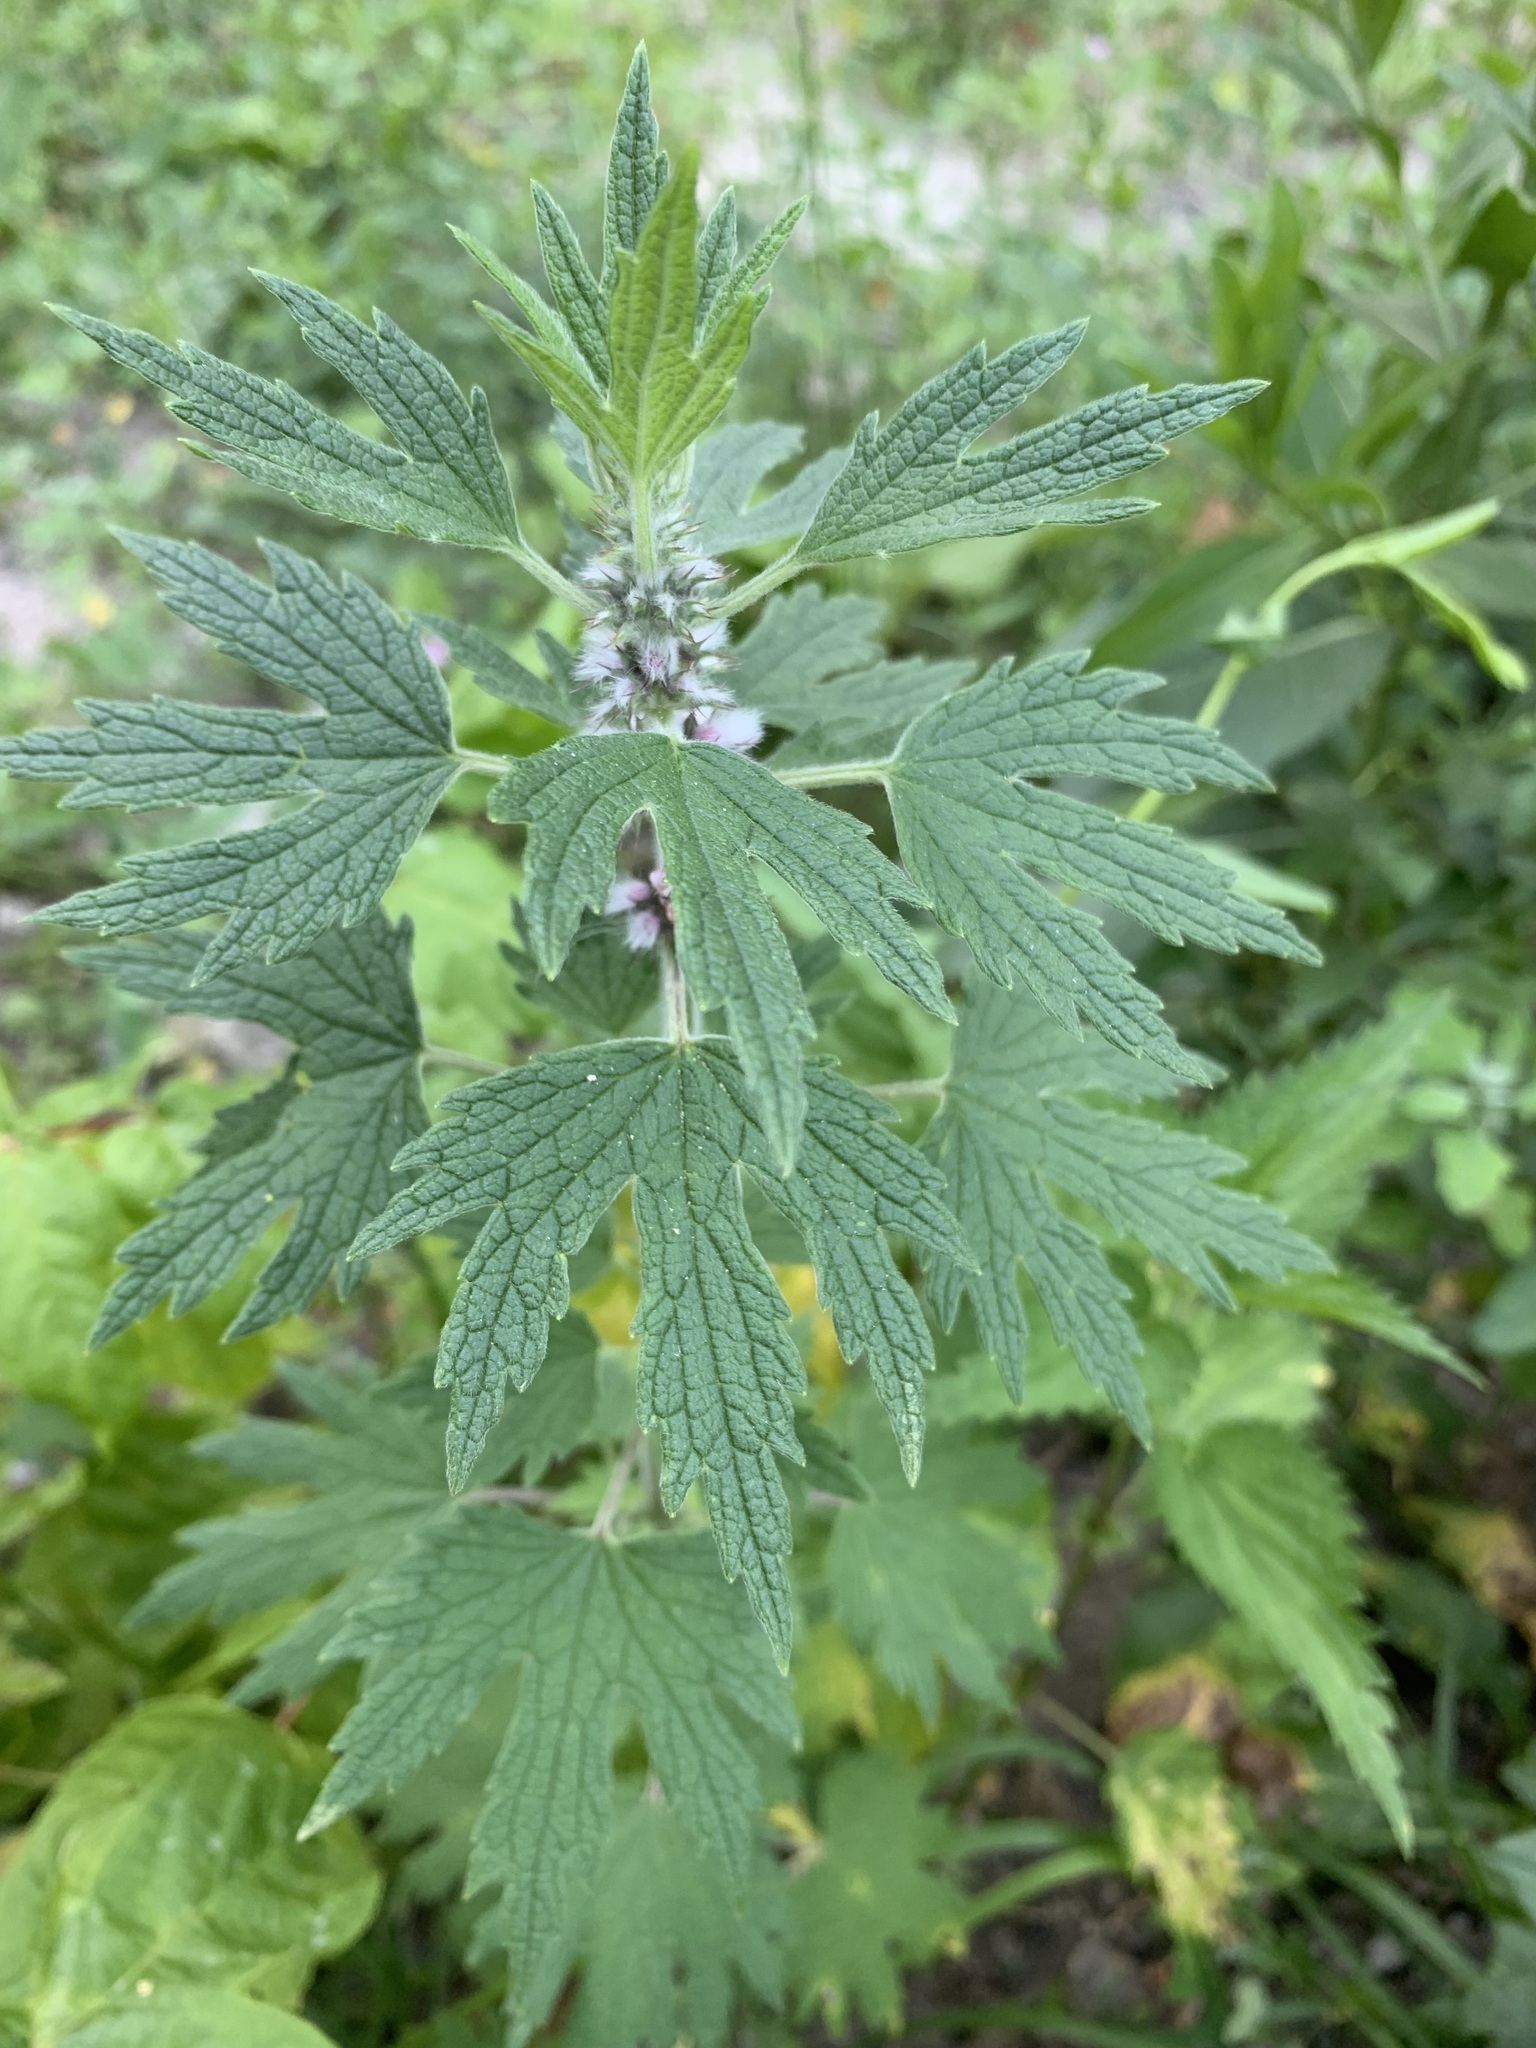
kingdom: Plantae
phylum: Tracheophyta
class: Magnoliopsida
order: Lamiales
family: Lamiaceae
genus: Leonurus
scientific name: Leonurus quinquelobatus
